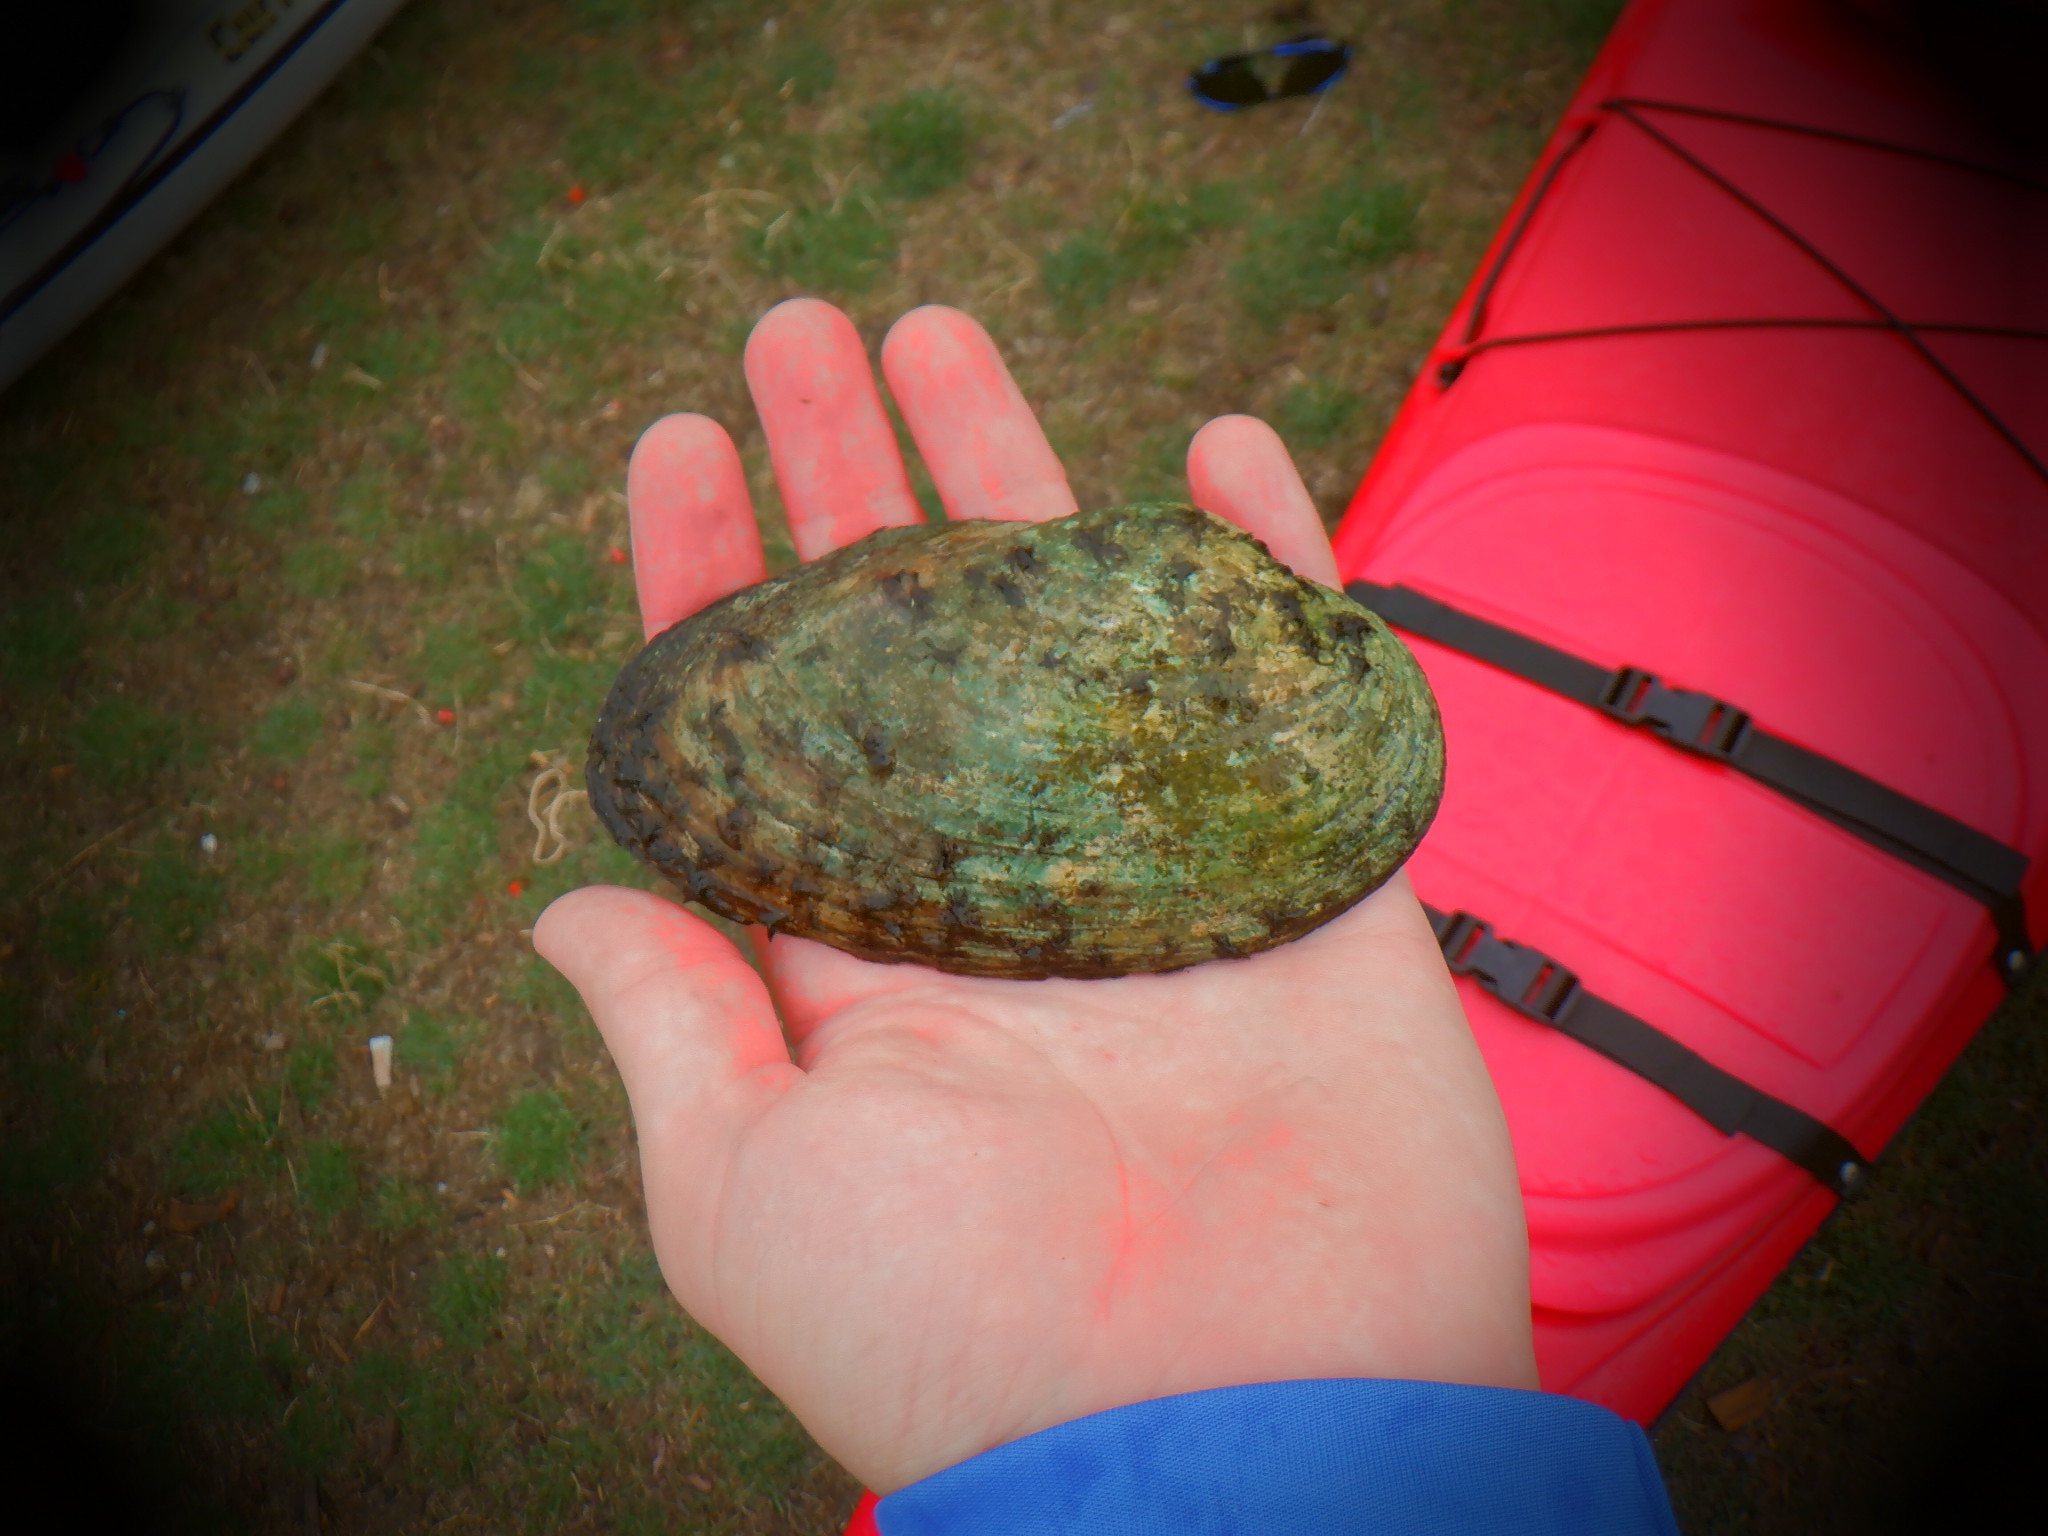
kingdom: Animalia
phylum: Mollusca
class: Bivalvia
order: Unionida
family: Unionidae
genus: Pyganodon
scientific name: Pyganodon grandis
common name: Giant floater
